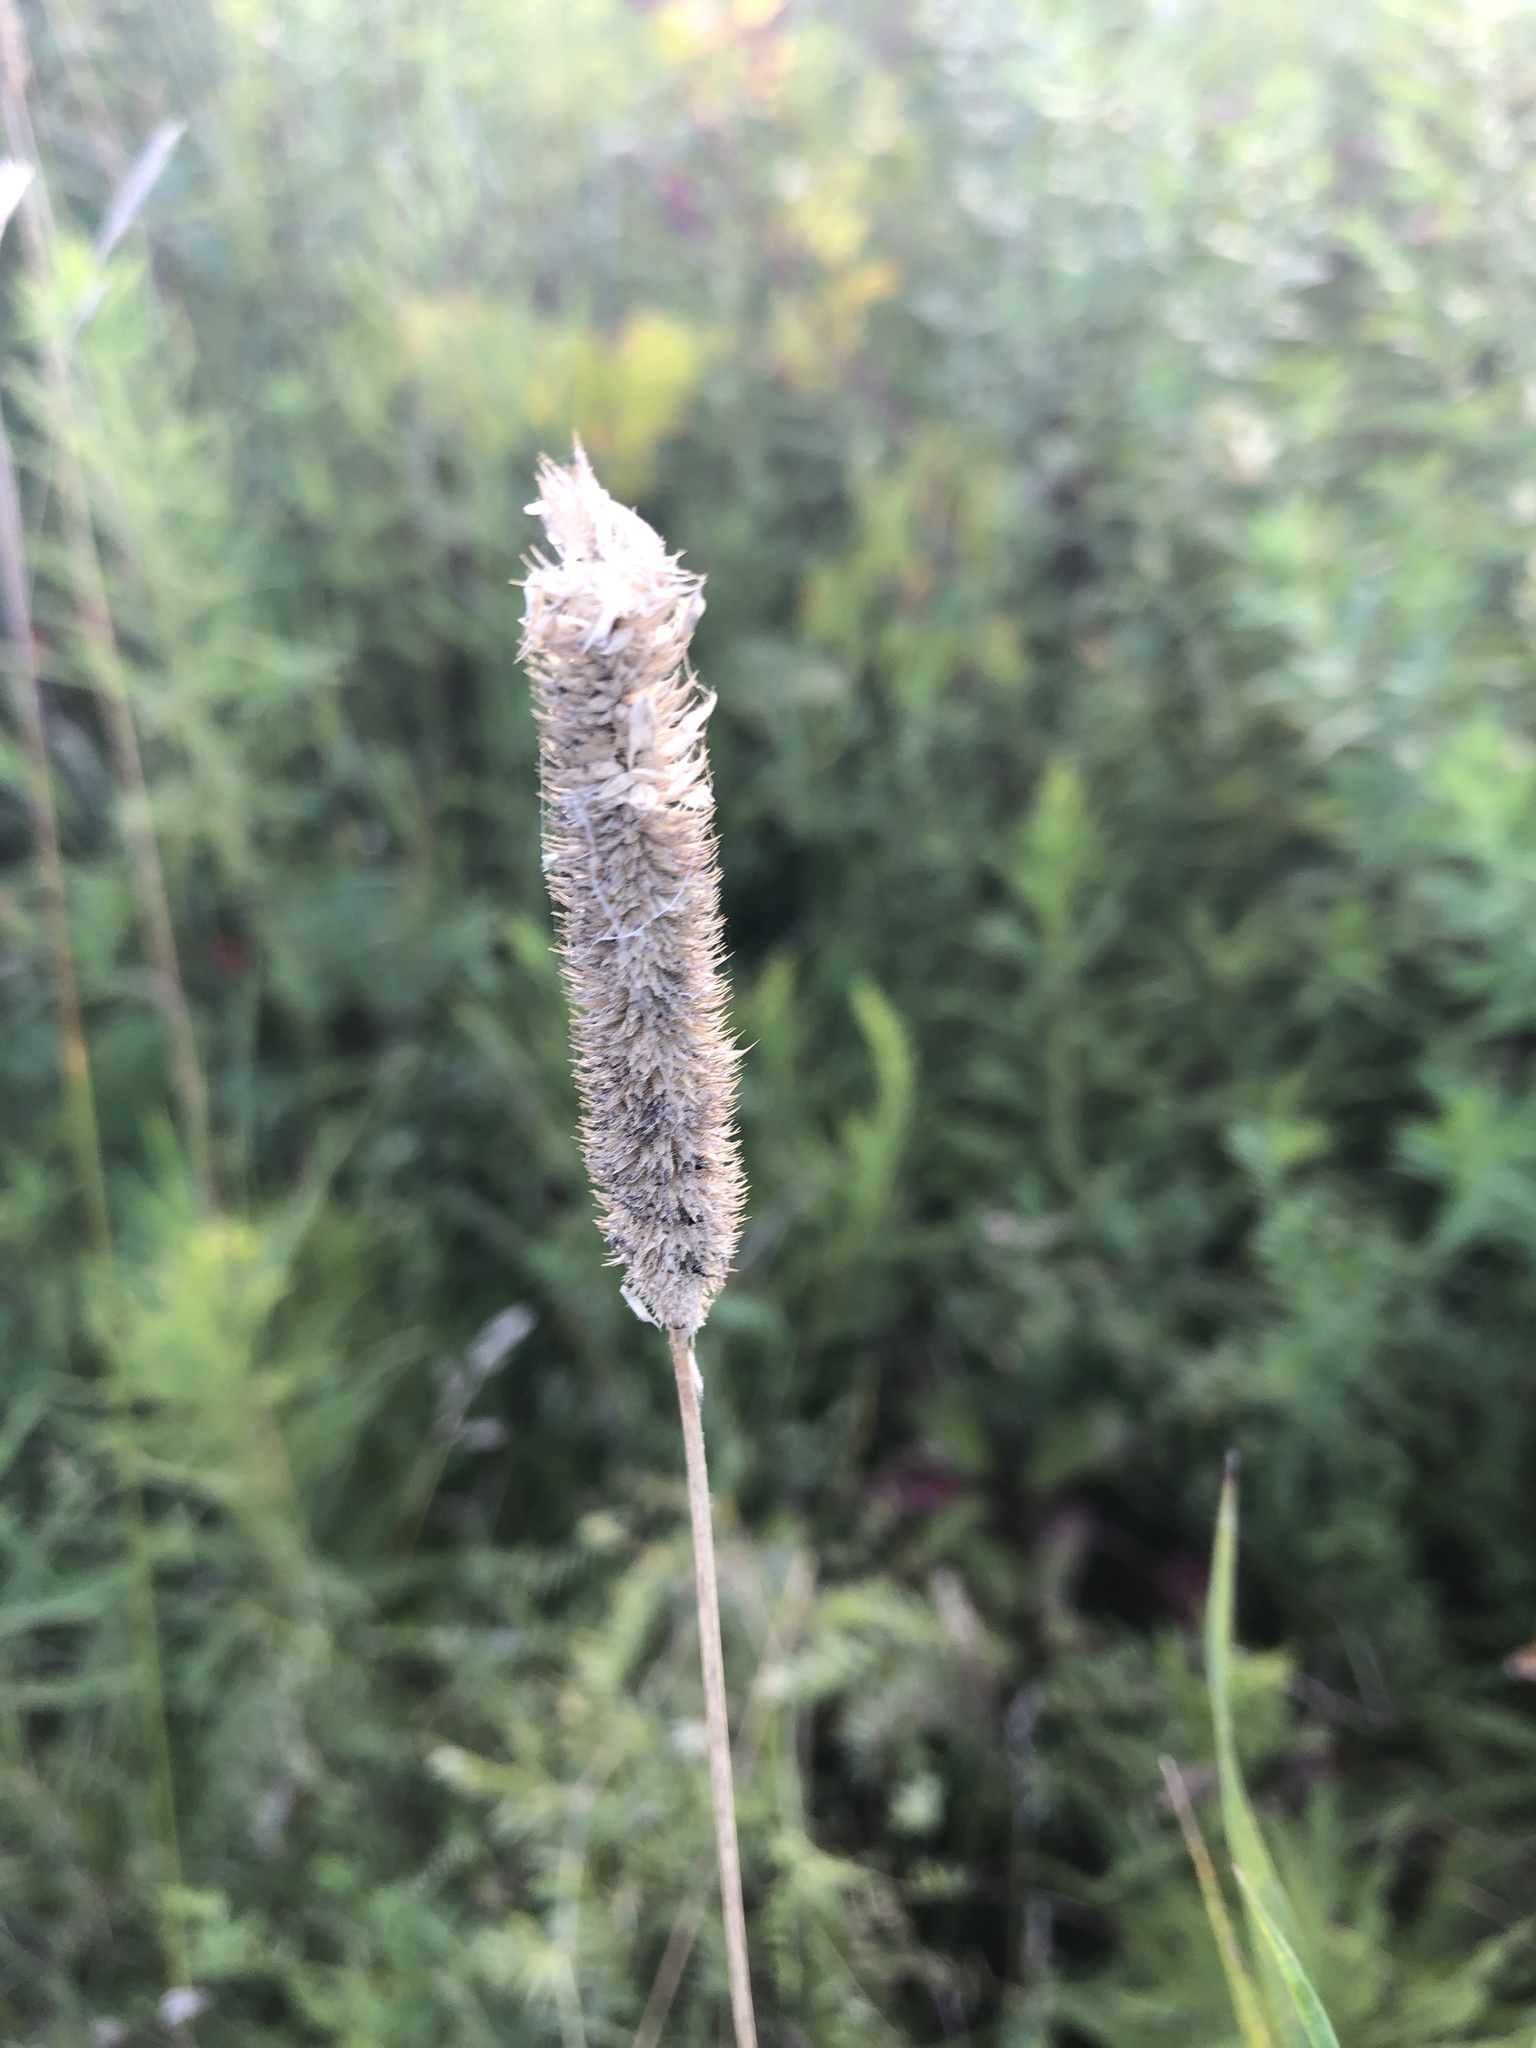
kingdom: Plantae
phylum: Tracheophyta
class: Liliopsida
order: Poales
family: Poaceae
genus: Phleum
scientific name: Phleum pratense
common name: Timothy grass
